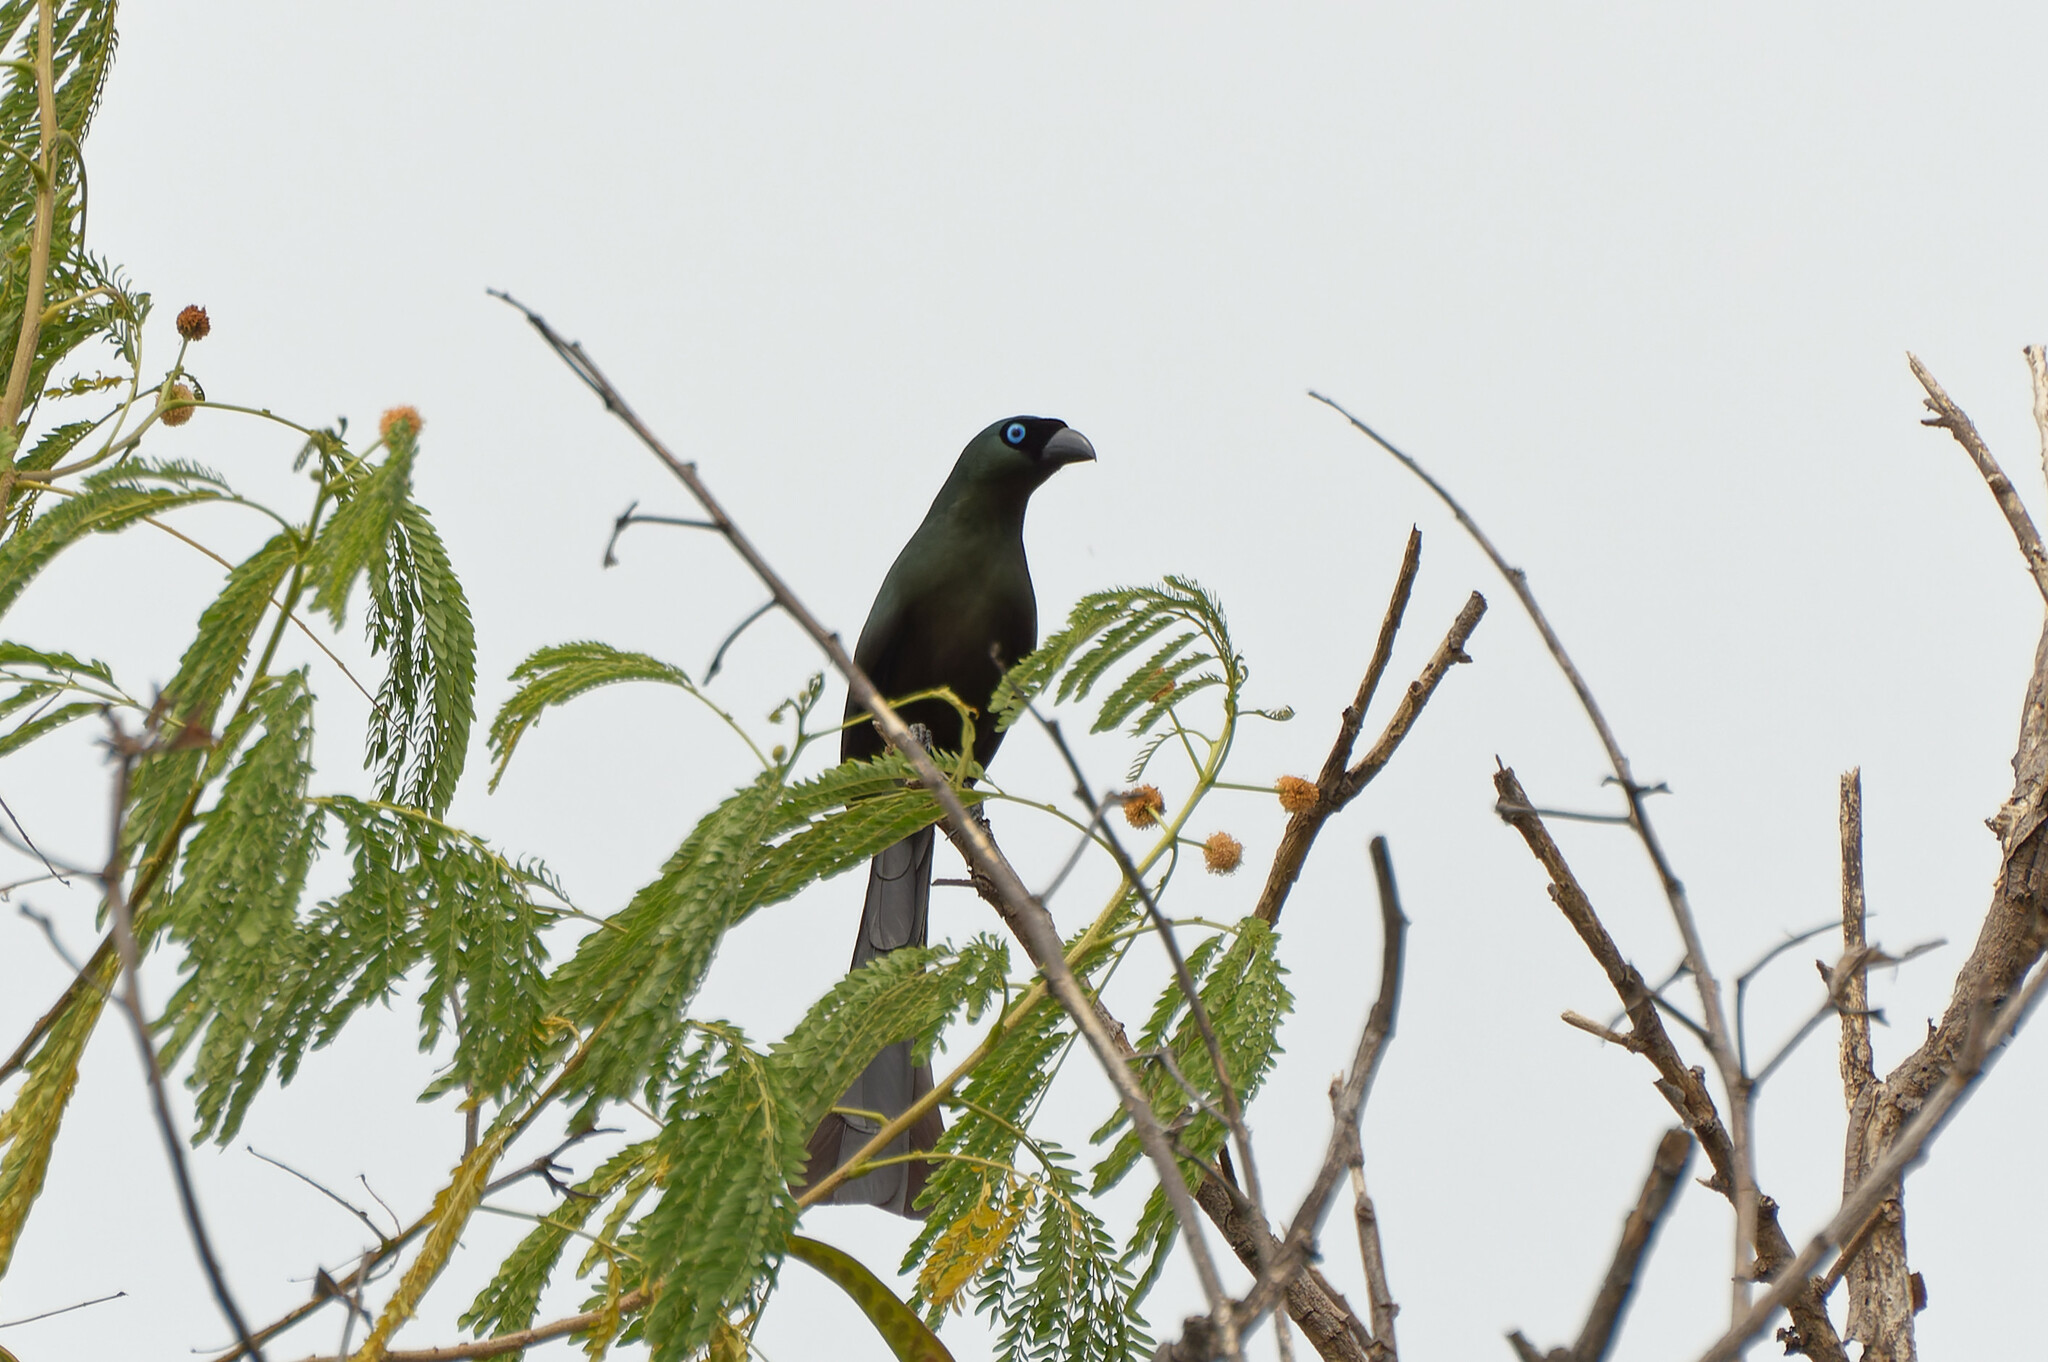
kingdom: Animalia
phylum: Chordata
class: Aves
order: Passeriformes
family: Corvidae
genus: Crypsirina
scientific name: Crypsirina temia
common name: Racket-tailed treepie
